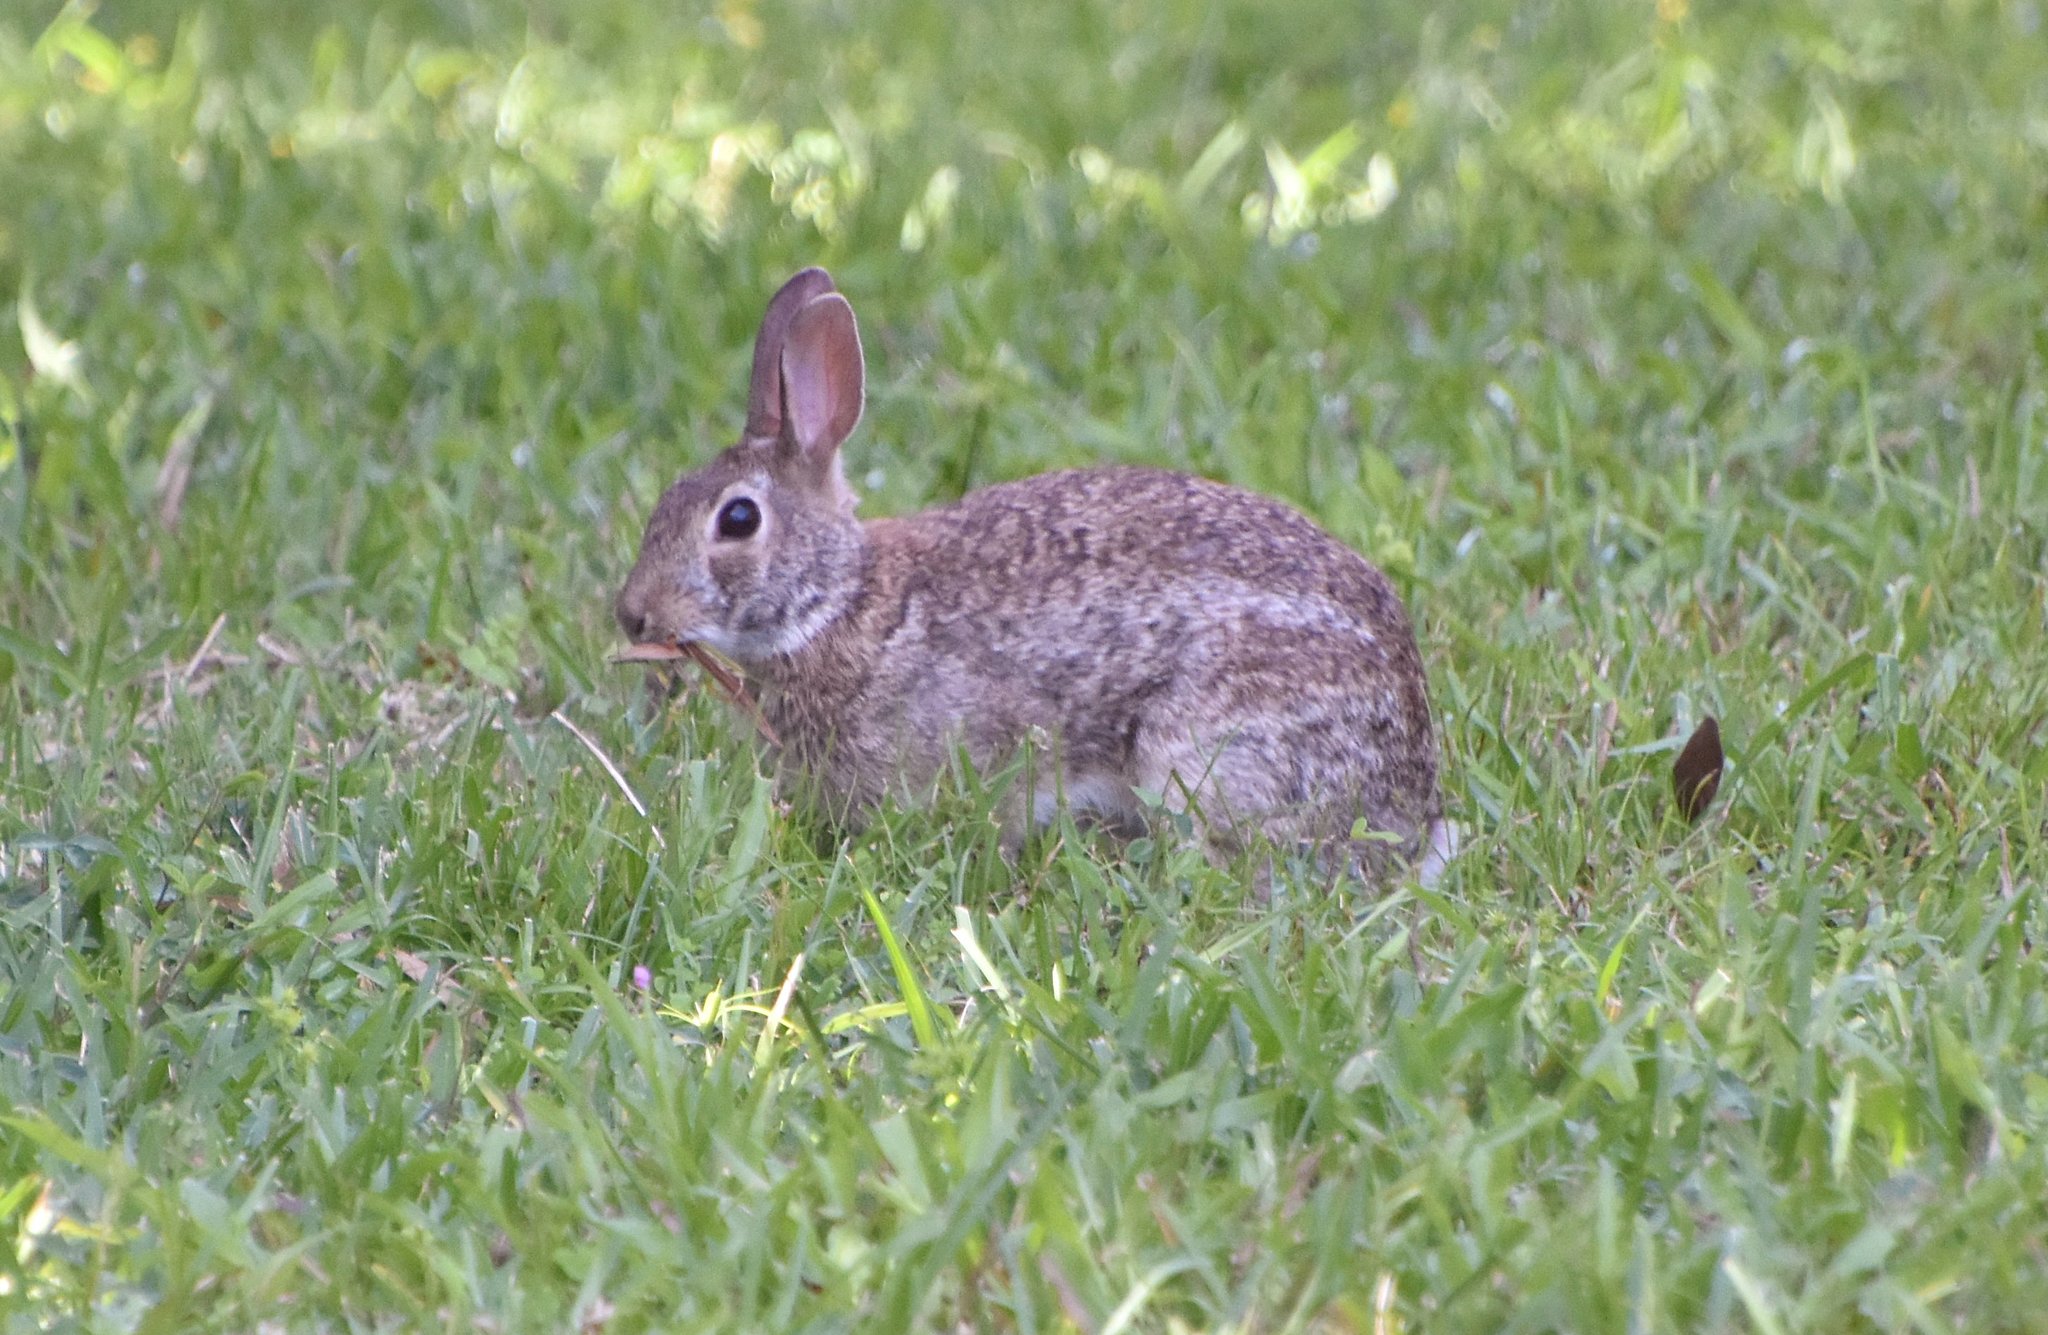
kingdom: Animalia
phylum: Chordata
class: Mammalia
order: Lagomorpha
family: Leporidae
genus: Sylvilagus
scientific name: Sylvilagus floridanus
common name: Eastern cottontail
